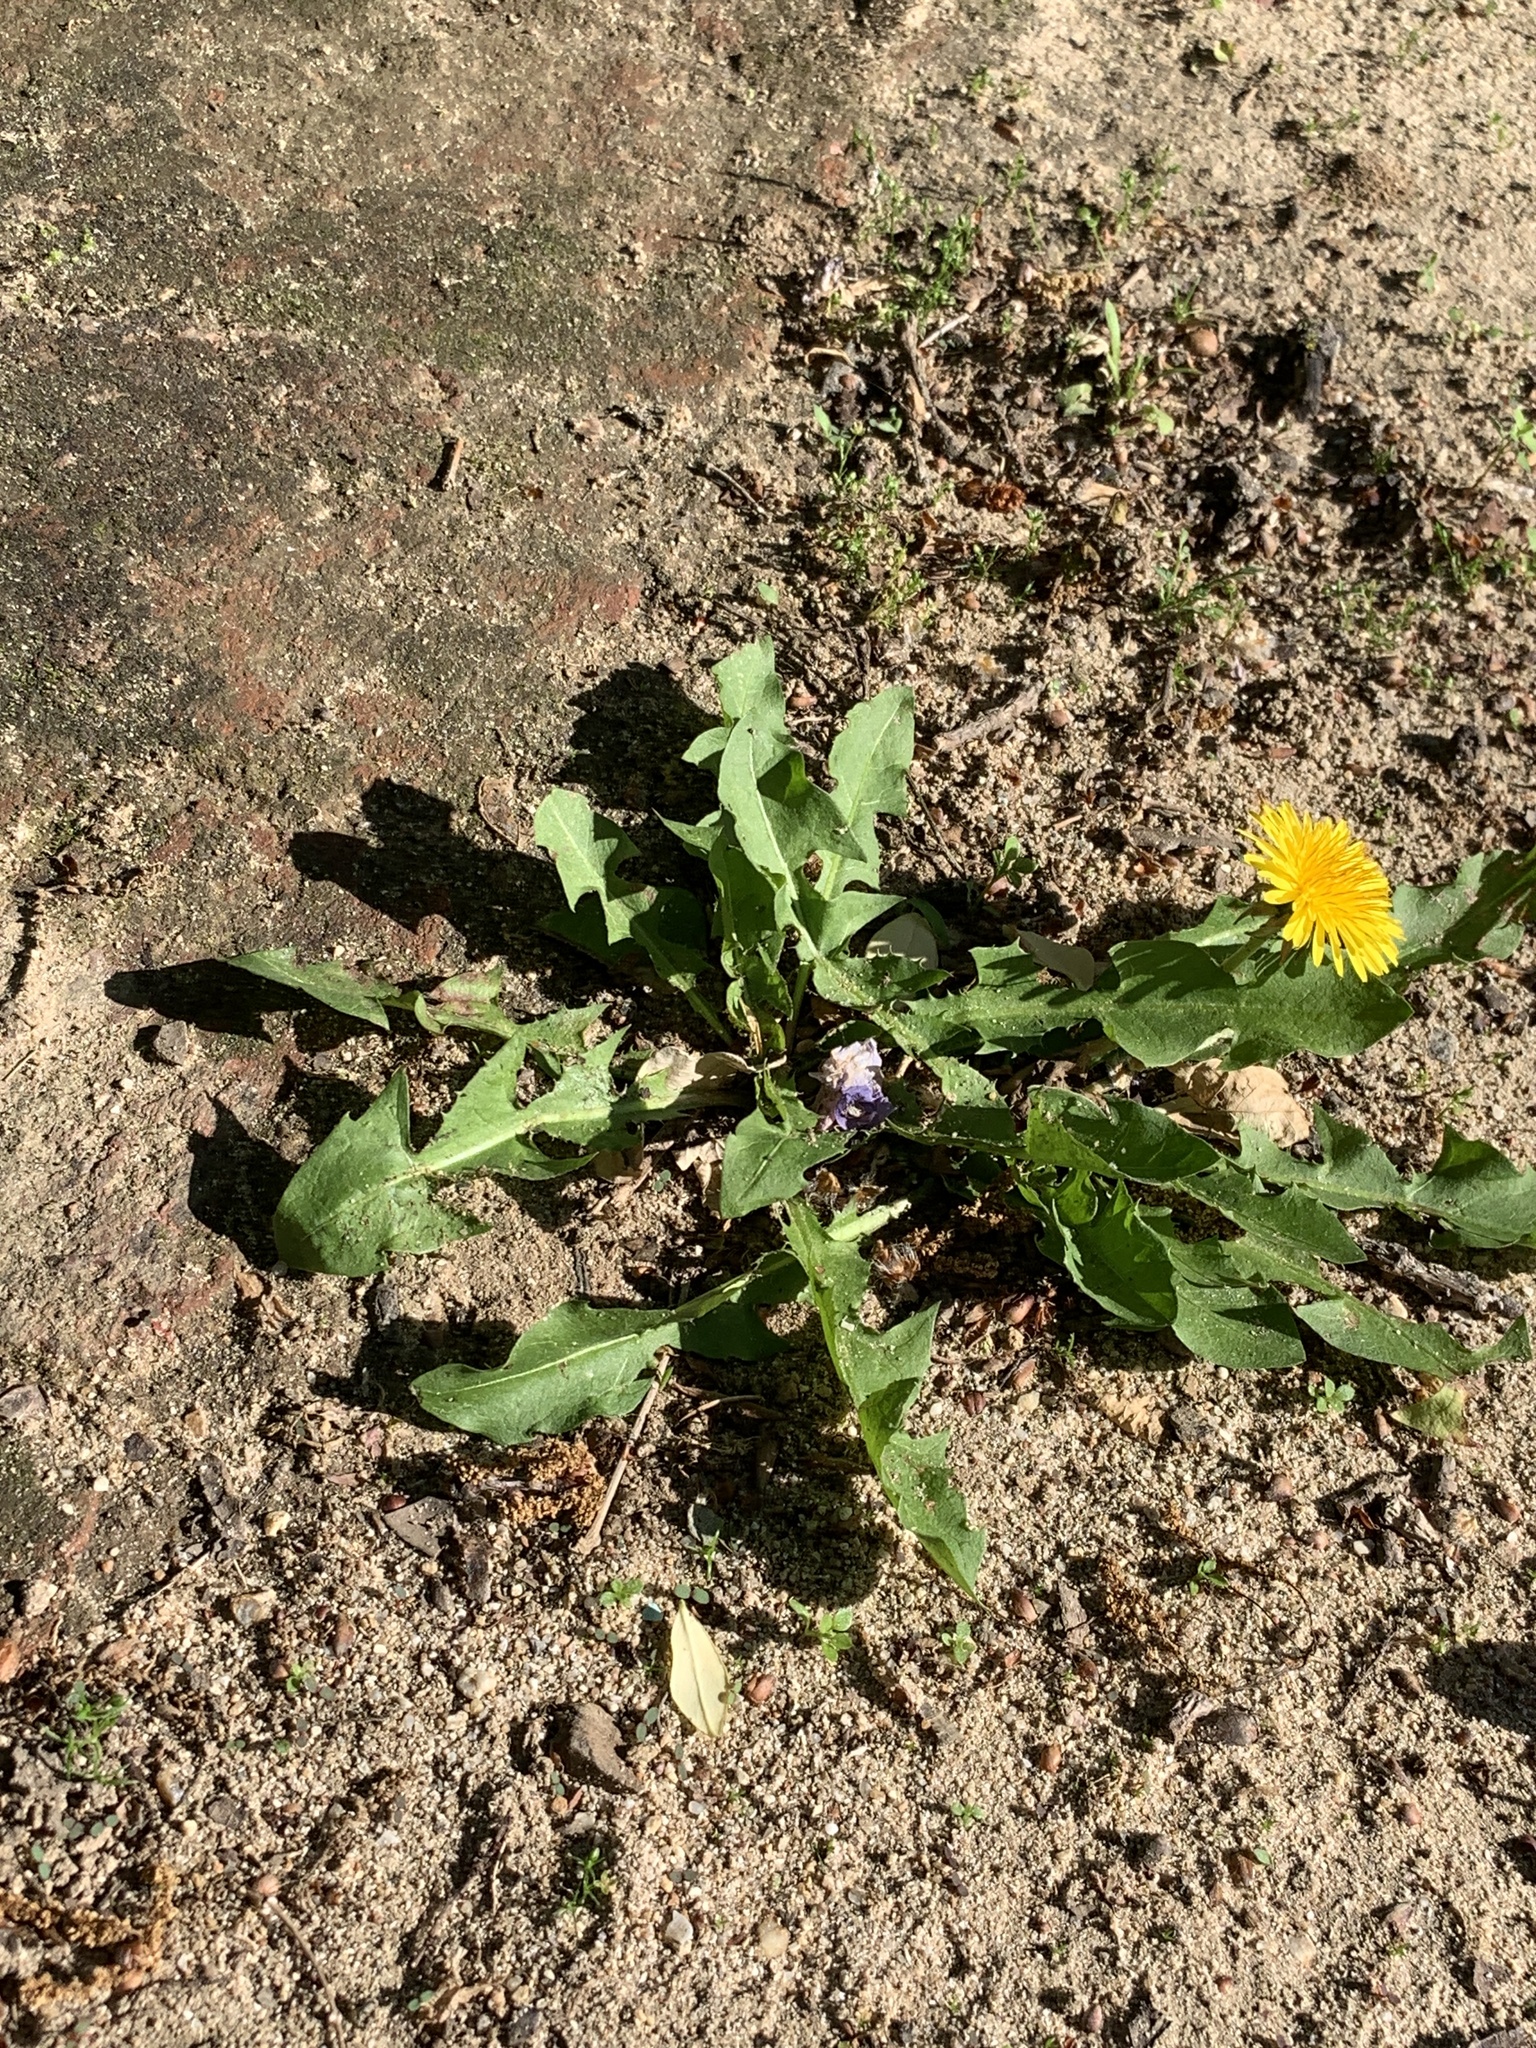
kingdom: Plantae
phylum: Tracheophyta
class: Magnoliopsida
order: Asterales
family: Asteraceae
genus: Taraxacum
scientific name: Taraxacum officinale
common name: Common dandelion
